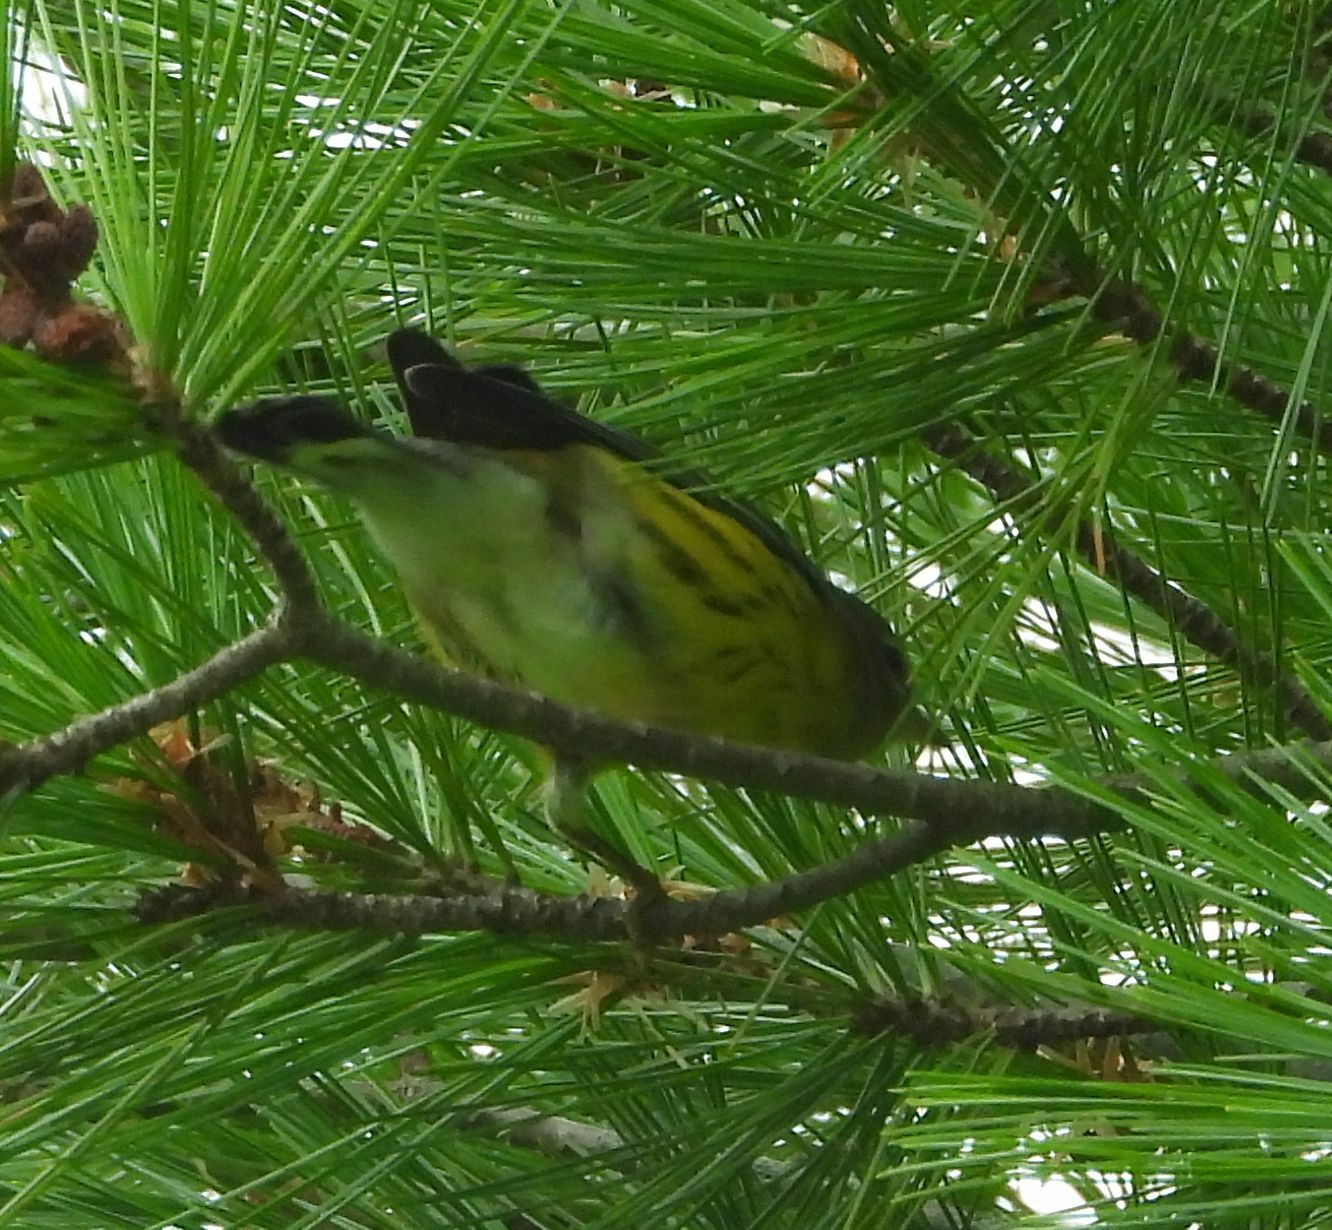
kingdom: Animalia
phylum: Chordata
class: Aves
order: Passeriformes
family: Parulidae
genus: Setophaga
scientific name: Setophaga magnolia
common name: Magnolia warbler
